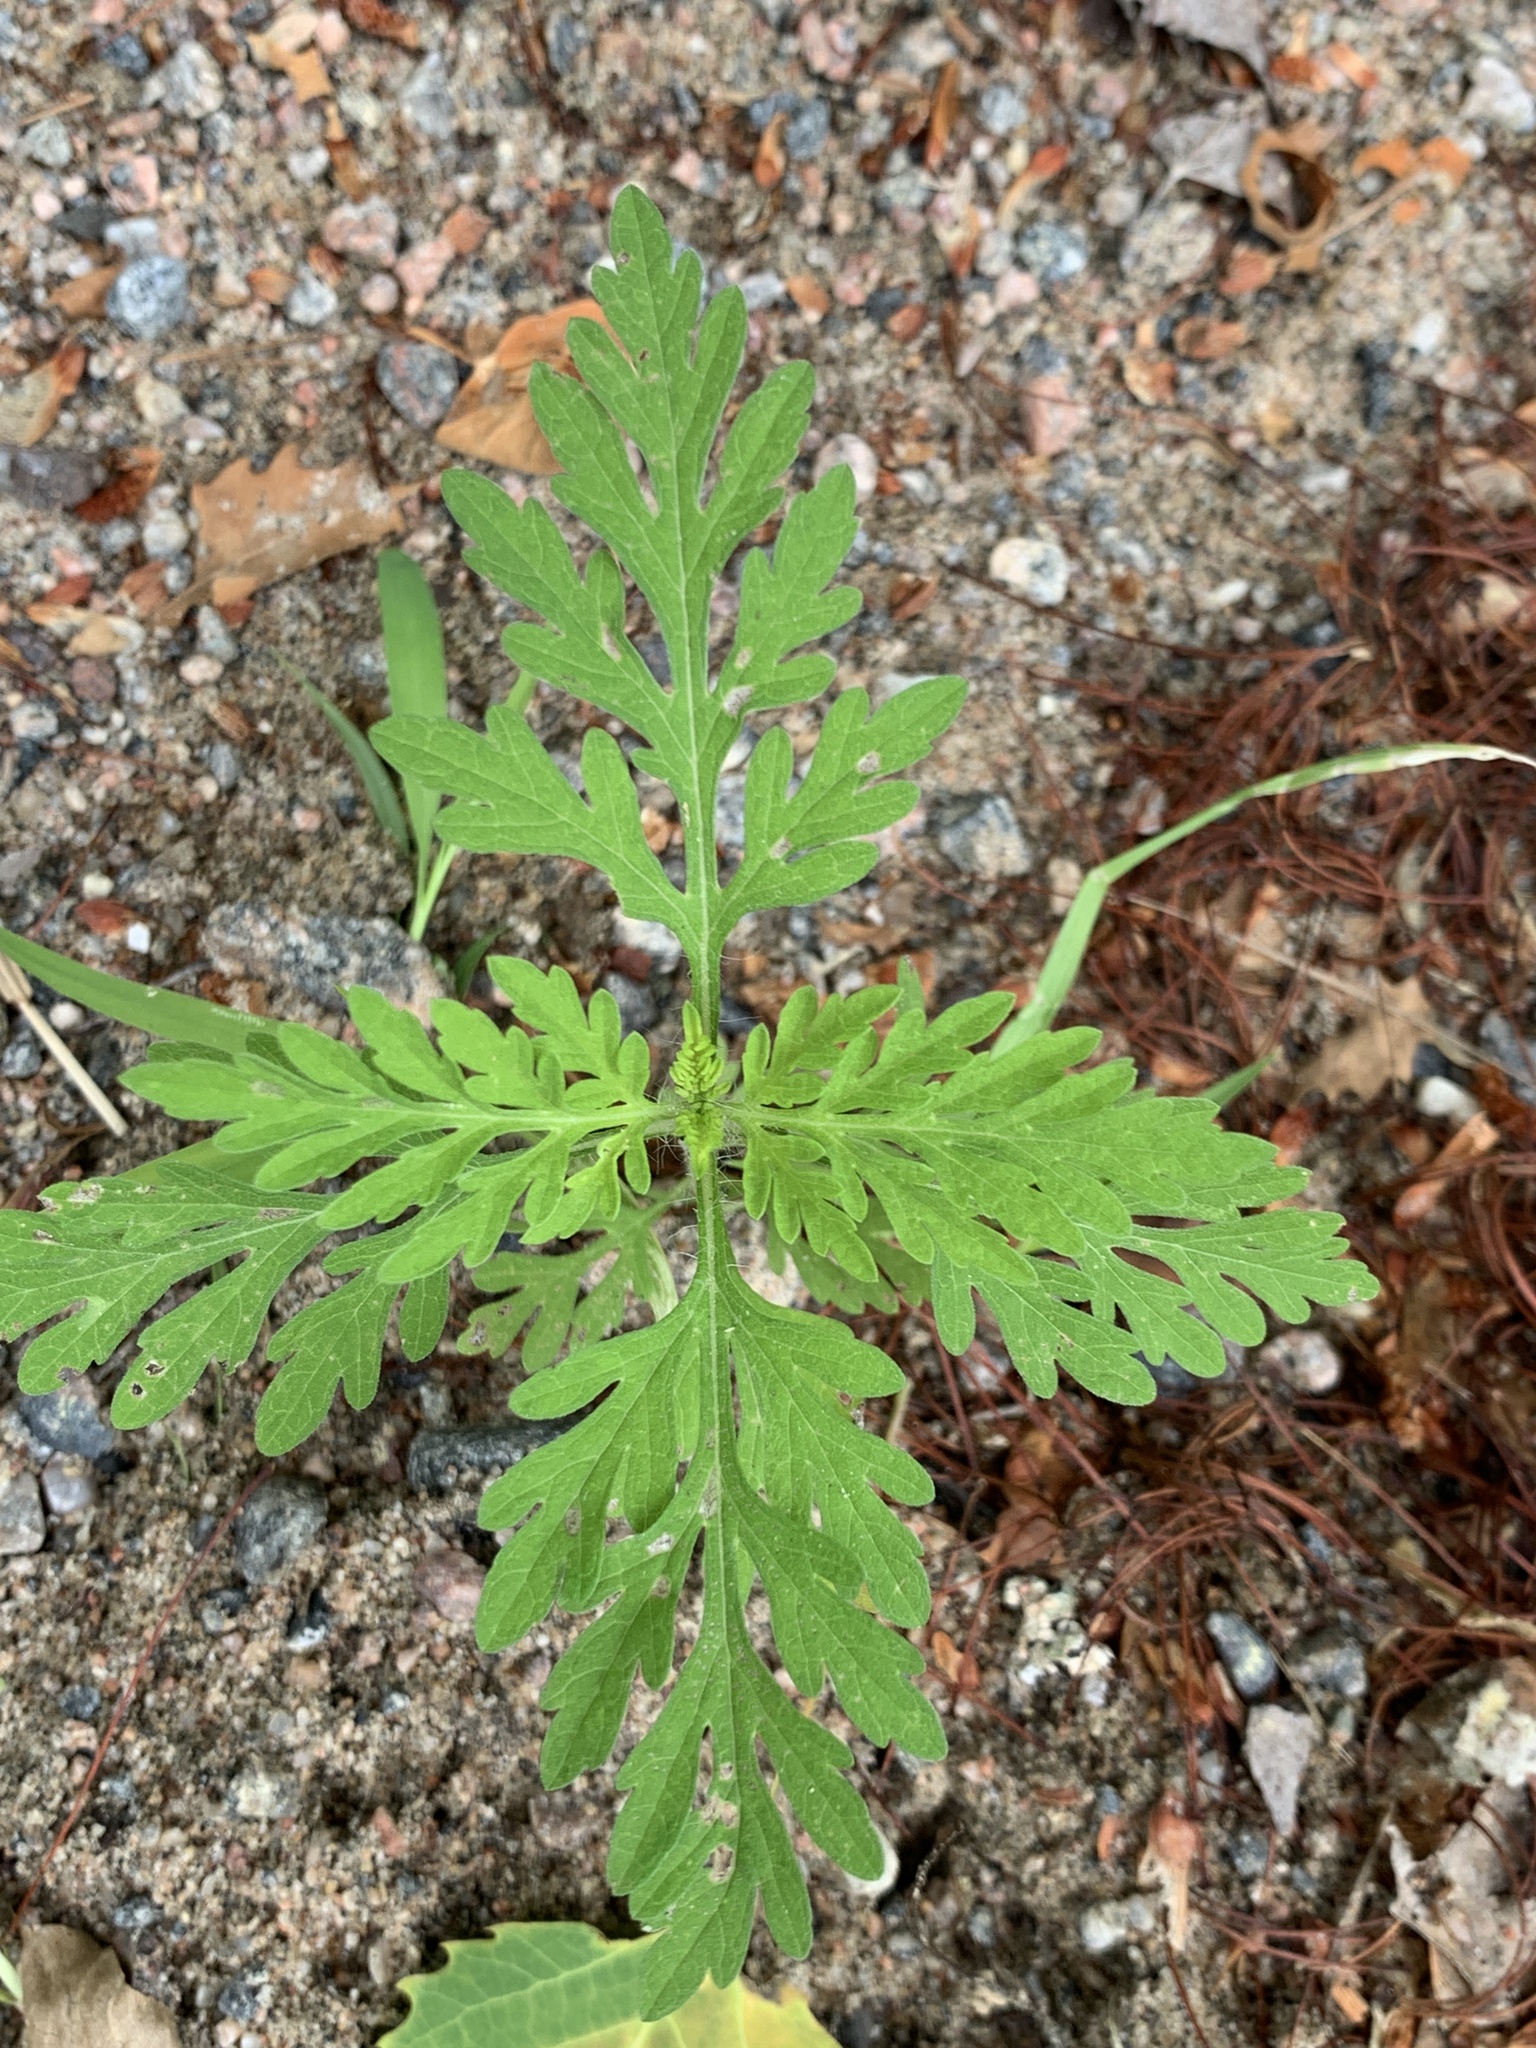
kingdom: Plantae
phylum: Tracheophyta
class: Magnoliopsida
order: Asterales
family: Asteraceae
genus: Ambrosia
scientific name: Ambrosia artemisiifolia
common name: Annual ragweed
